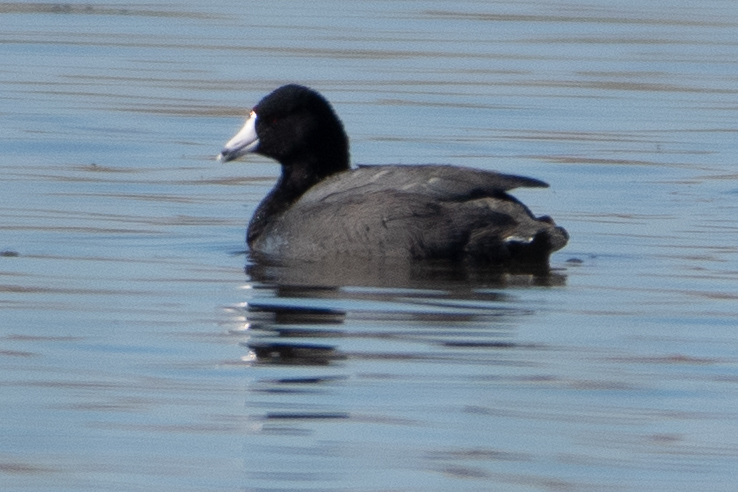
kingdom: Animalia
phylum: Chordata
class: Aves
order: Gruiformes
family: Rallidae
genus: Fulica
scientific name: Fulica americana
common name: American coot
